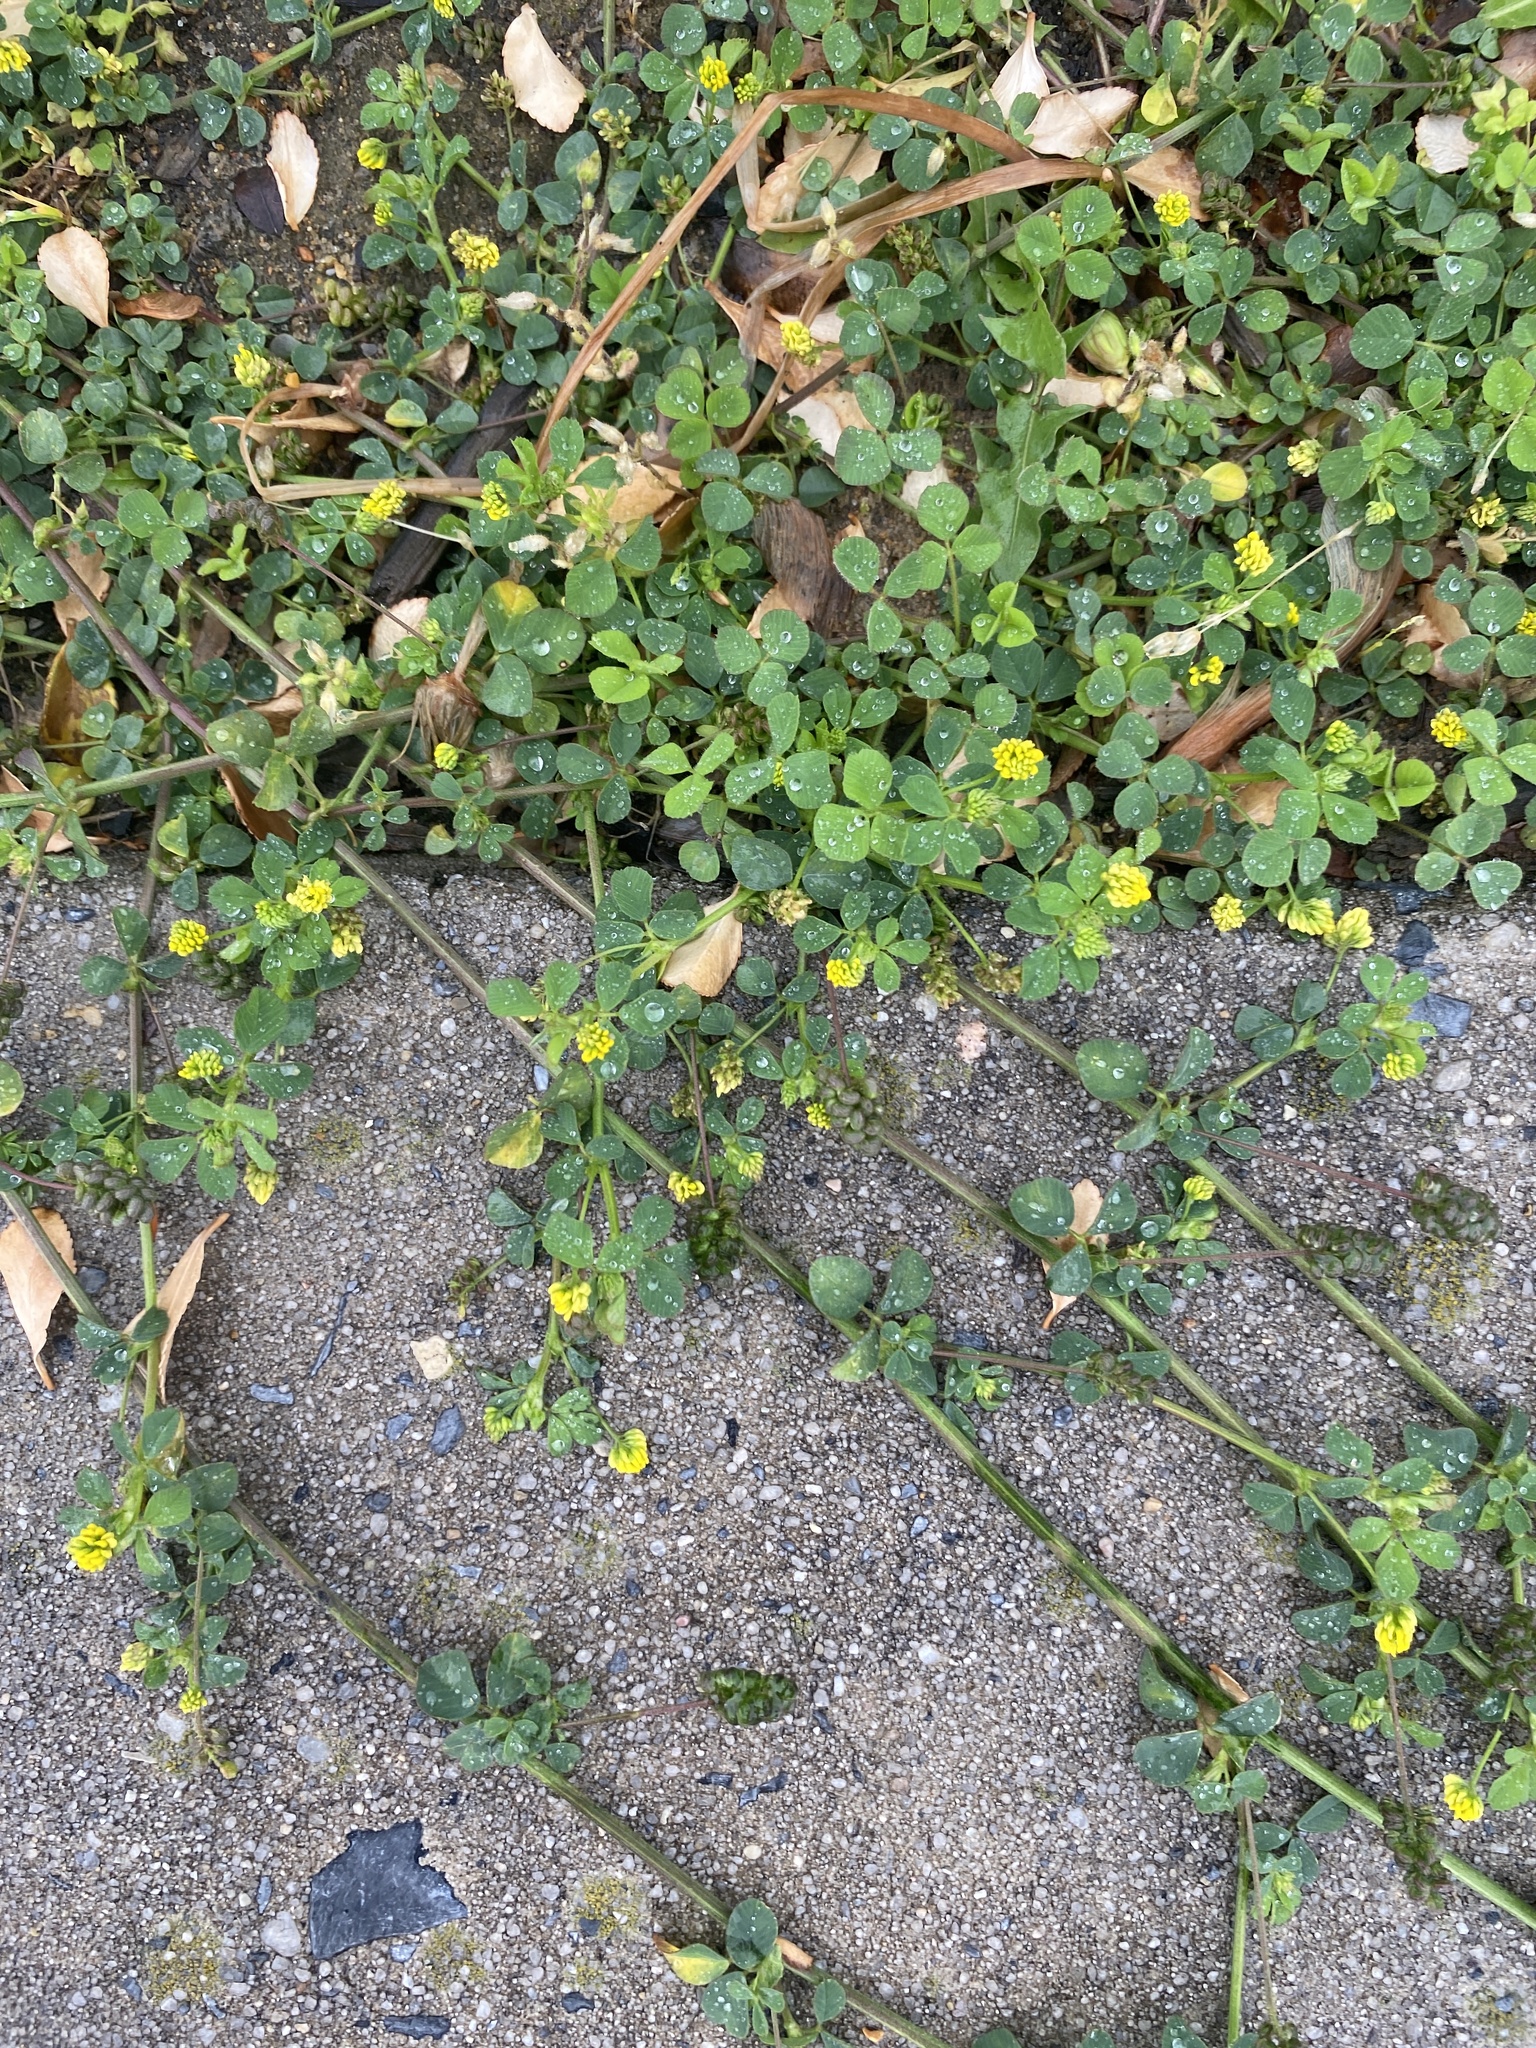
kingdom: Plantae
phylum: Tracheophyta
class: Magnoliopsida
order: Fabales
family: Fabaceae
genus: Medicago
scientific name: Medicago lupulina
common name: Black medick
